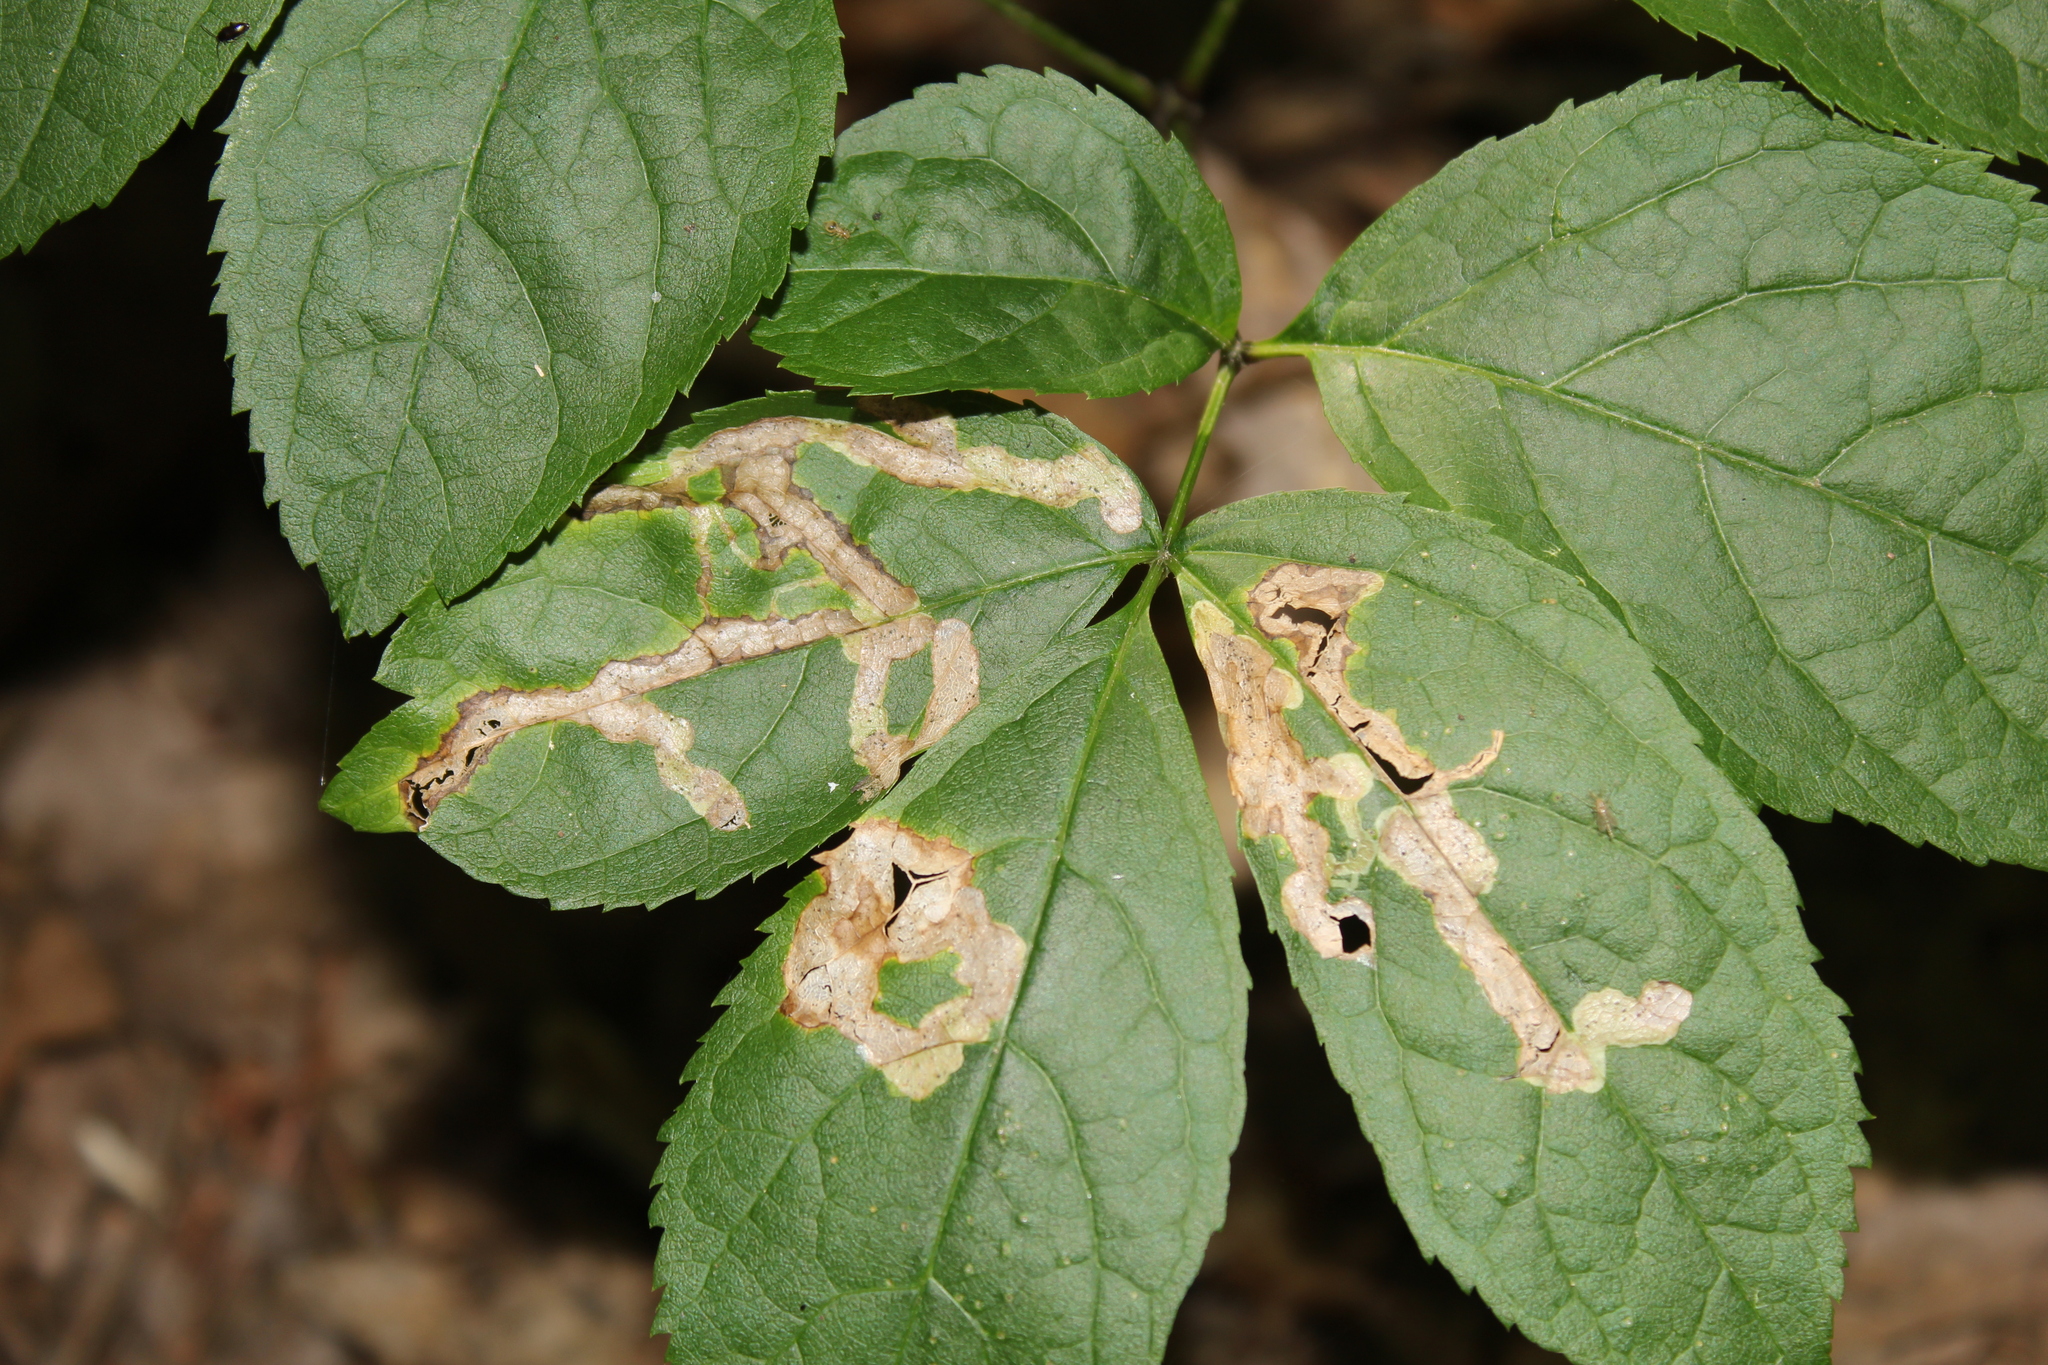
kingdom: Animalia
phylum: Arthropoda
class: Insecta
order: Diptera
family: Agromyzidae
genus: Phytomyza
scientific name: Phytomyza aralivora
